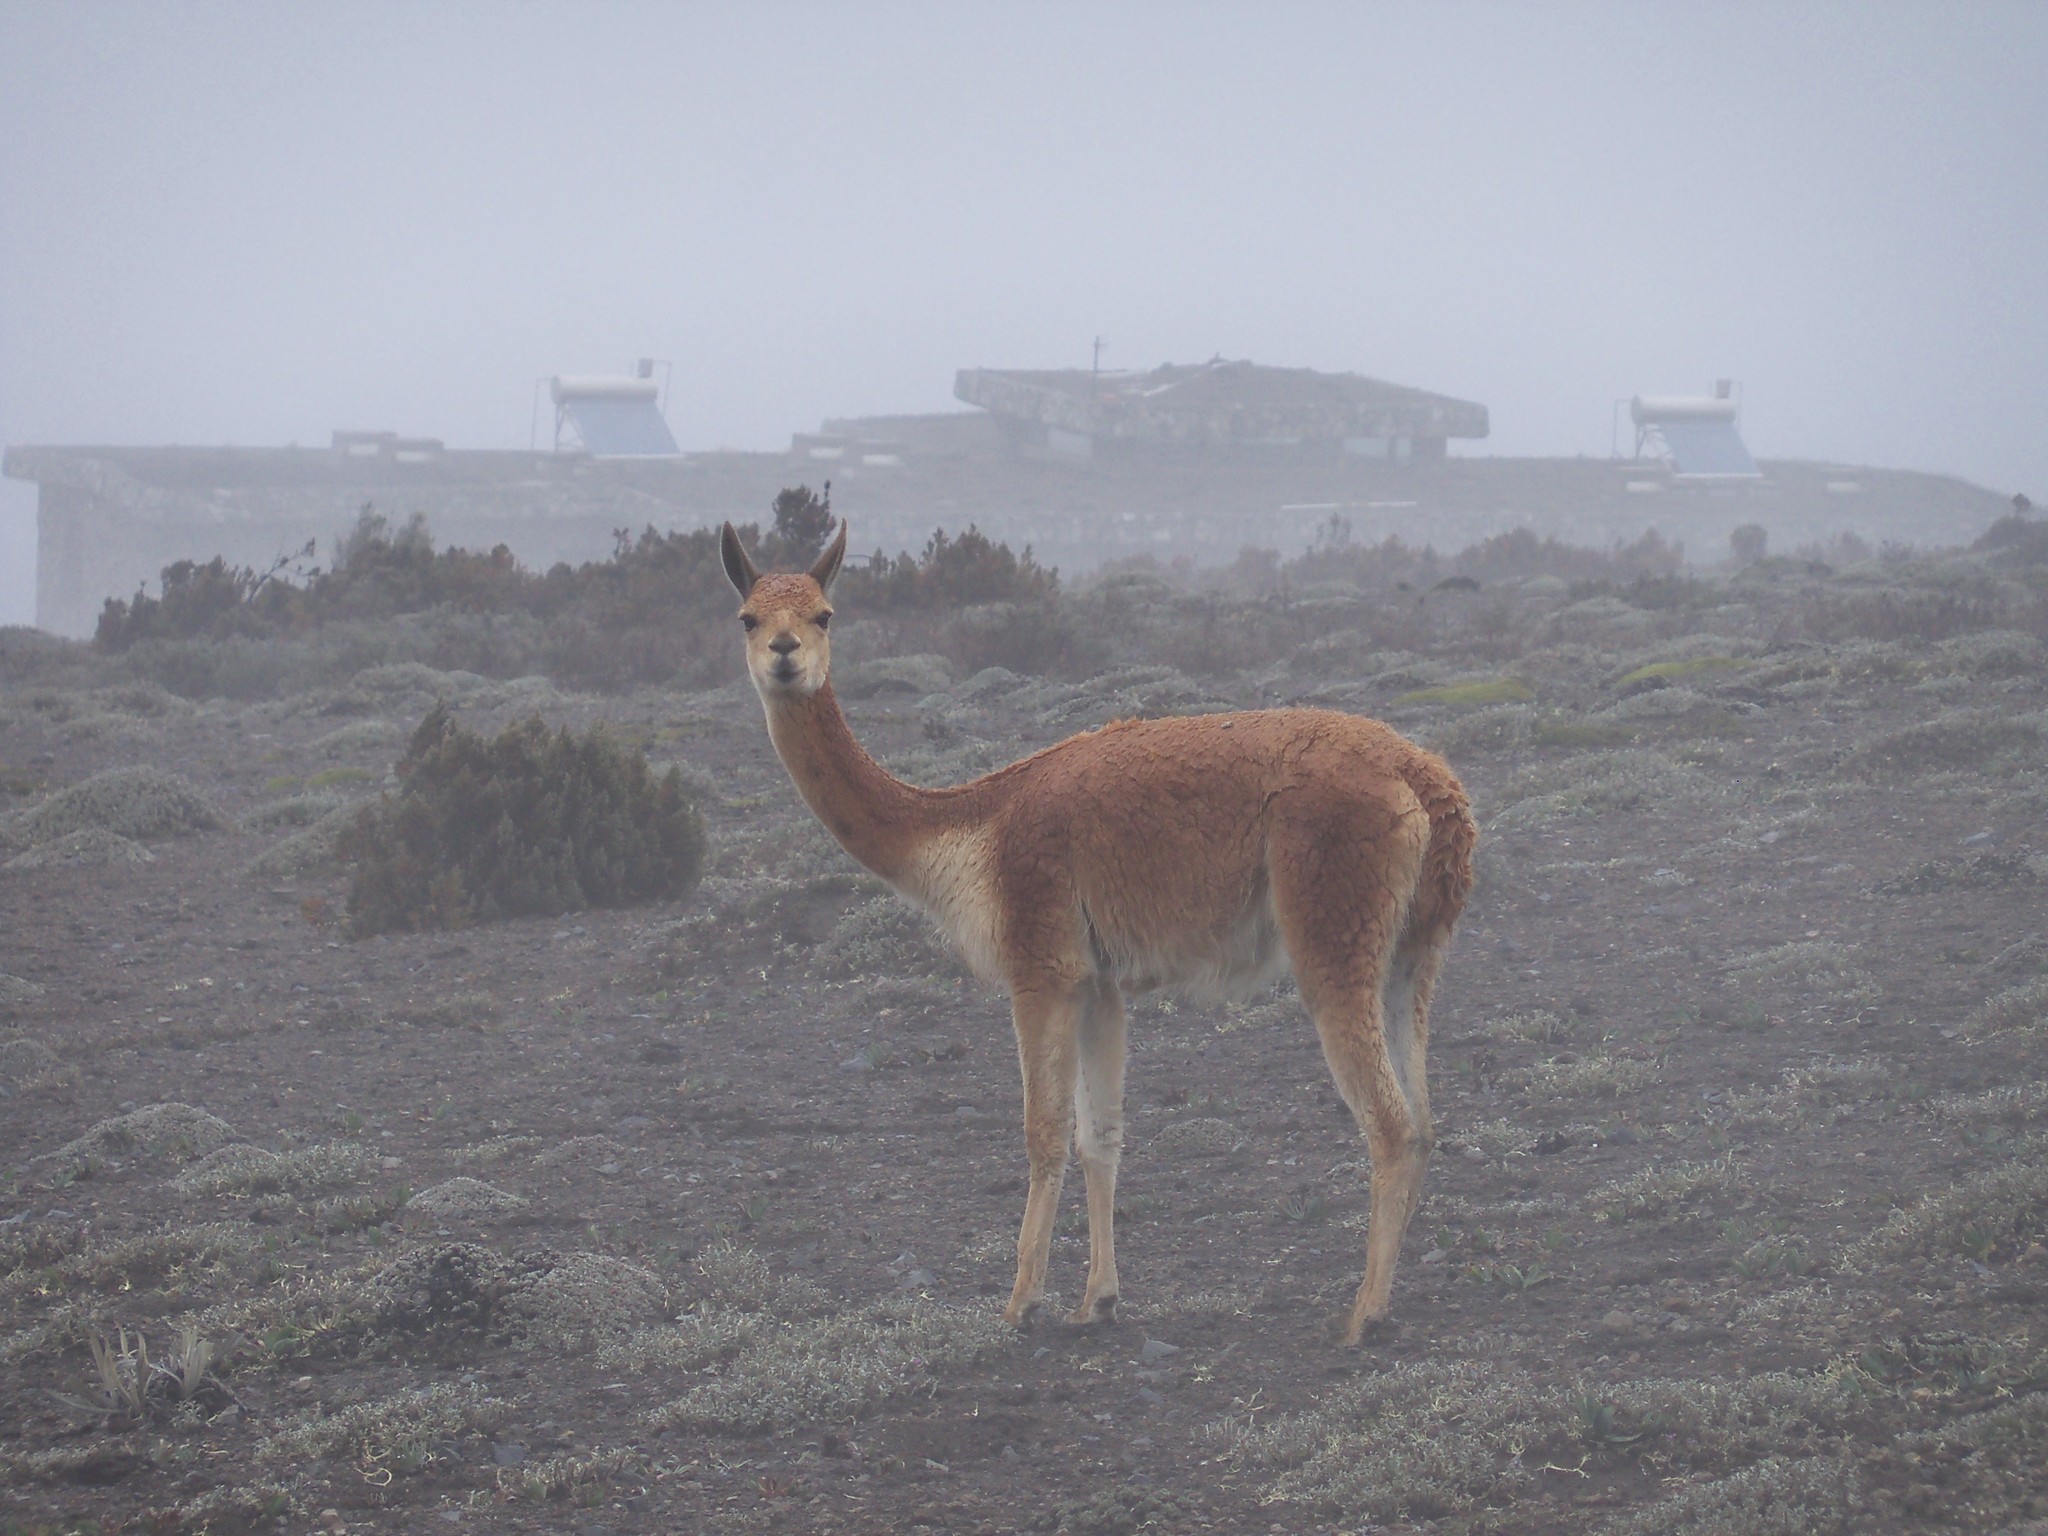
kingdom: Animalia
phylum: Chordata
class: Mammalia
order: Artiodactyla
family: Camelidae
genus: Vicugna
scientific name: Vicugna vicugna
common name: Vicugna
